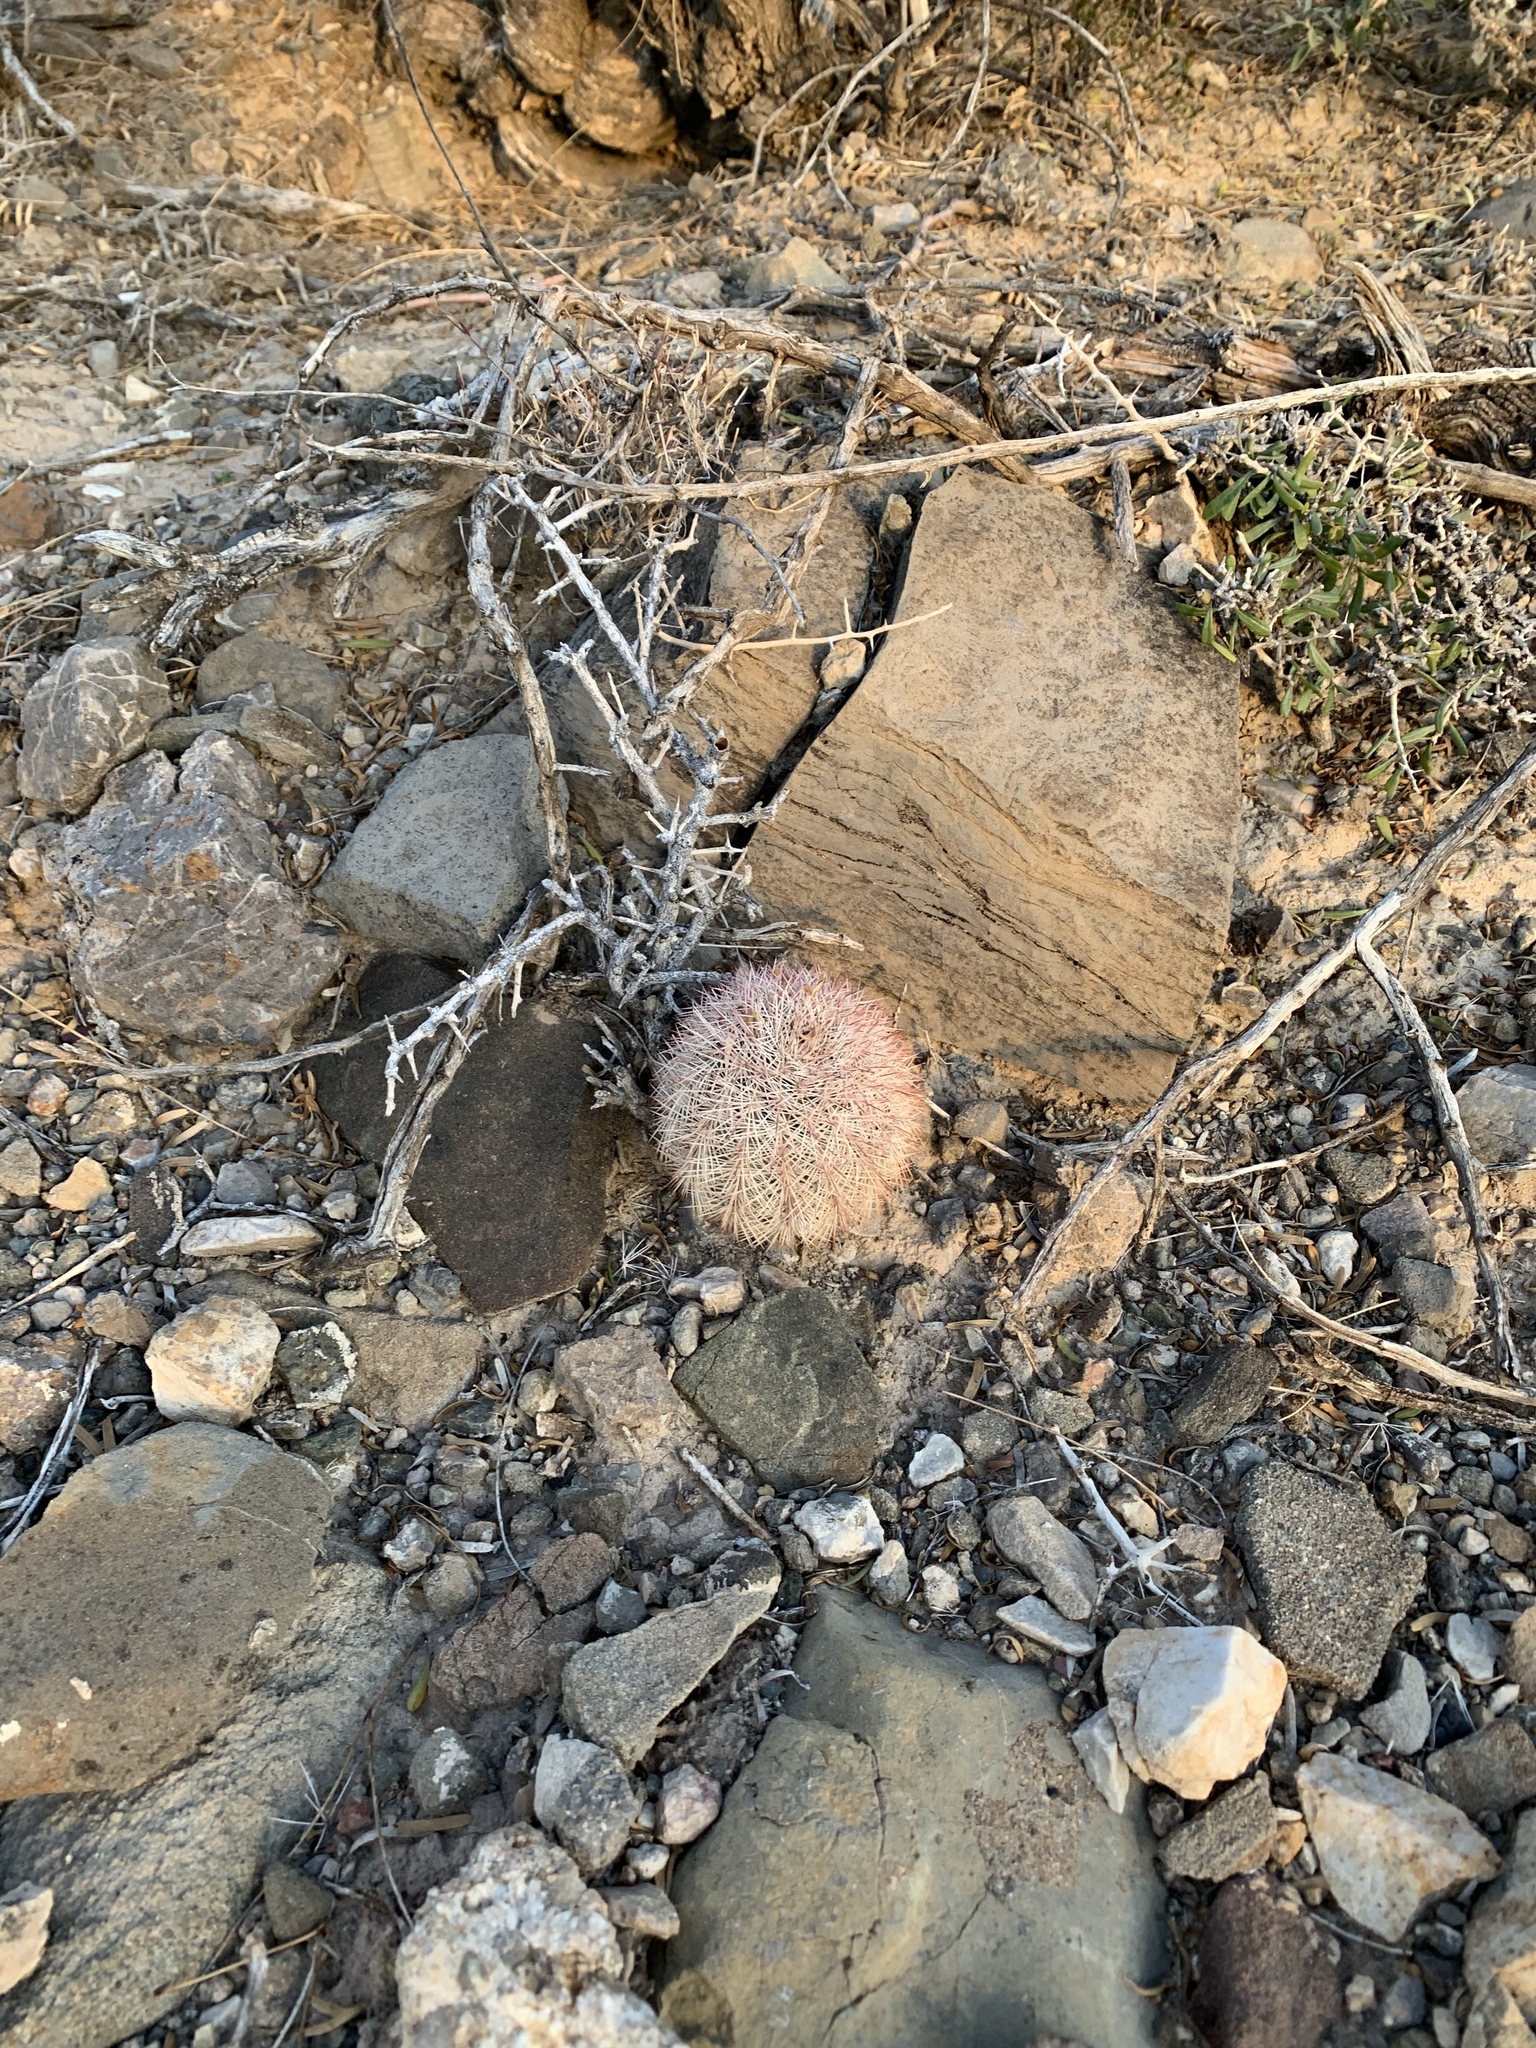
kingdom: Plantae
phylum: Tracheophyta
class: Magnoliopsida
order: Caryophyllales
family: Cactaceae
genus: Echinocereus
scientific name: Echinocereus dasyacanthus
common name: Spiny hedgehog cactus
